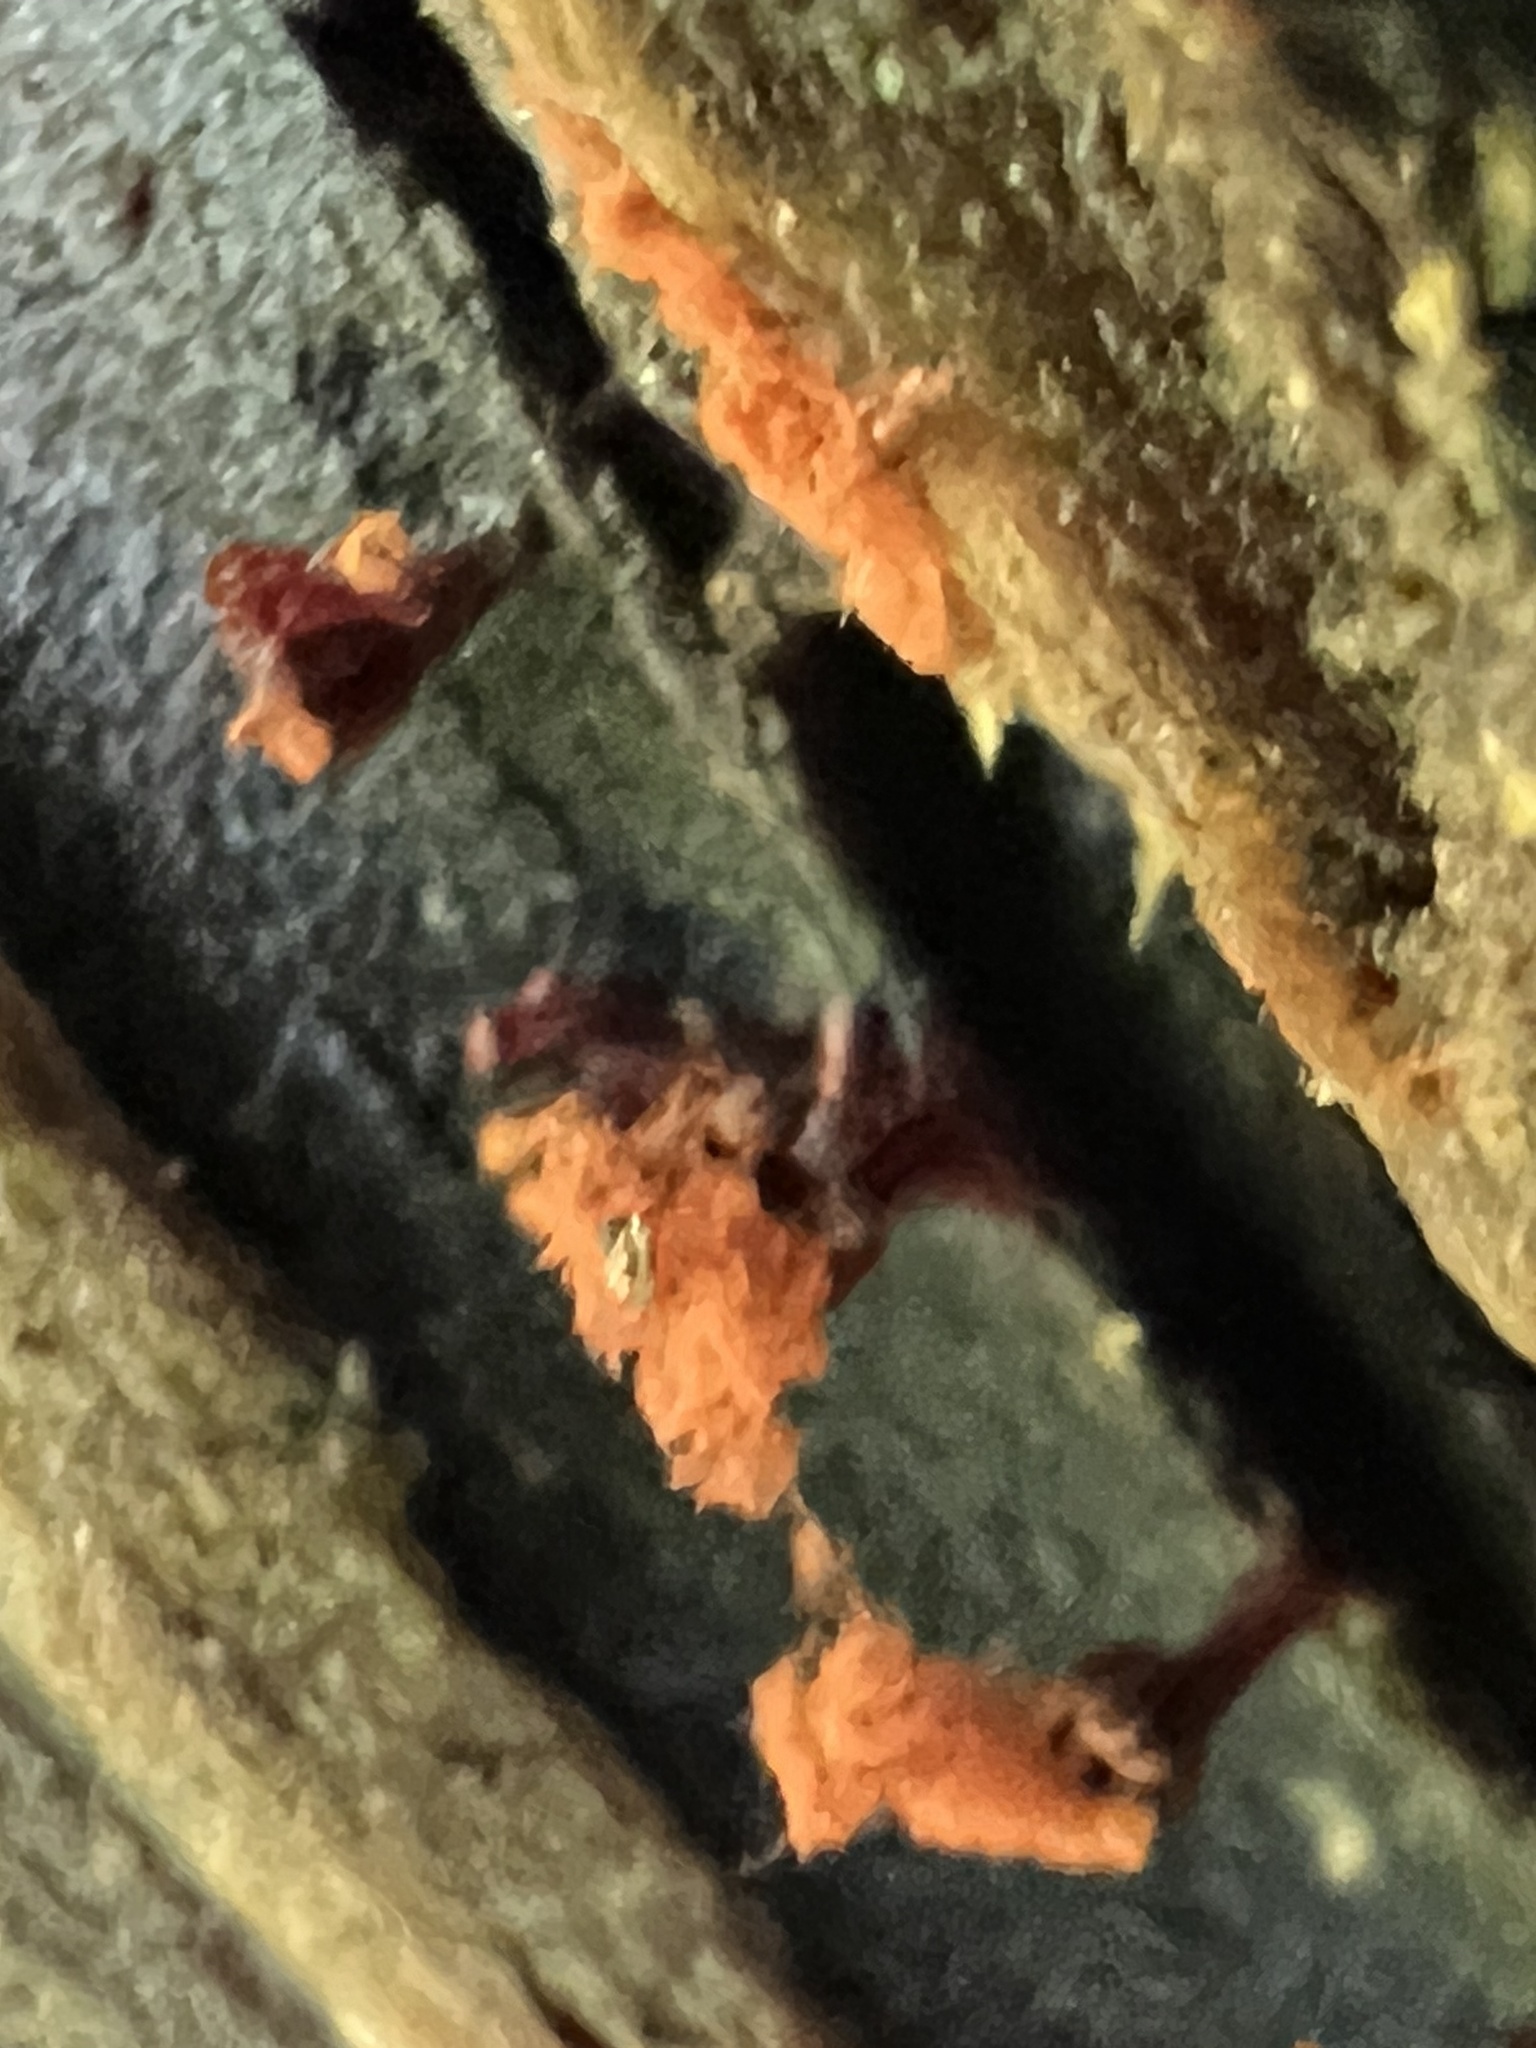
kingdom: Protozoa
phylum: Mycetozoa
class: Myxomycetes
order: Trichiales
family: Trichiaceae
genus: Metatrichia
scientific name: Metatrichia vesparia
